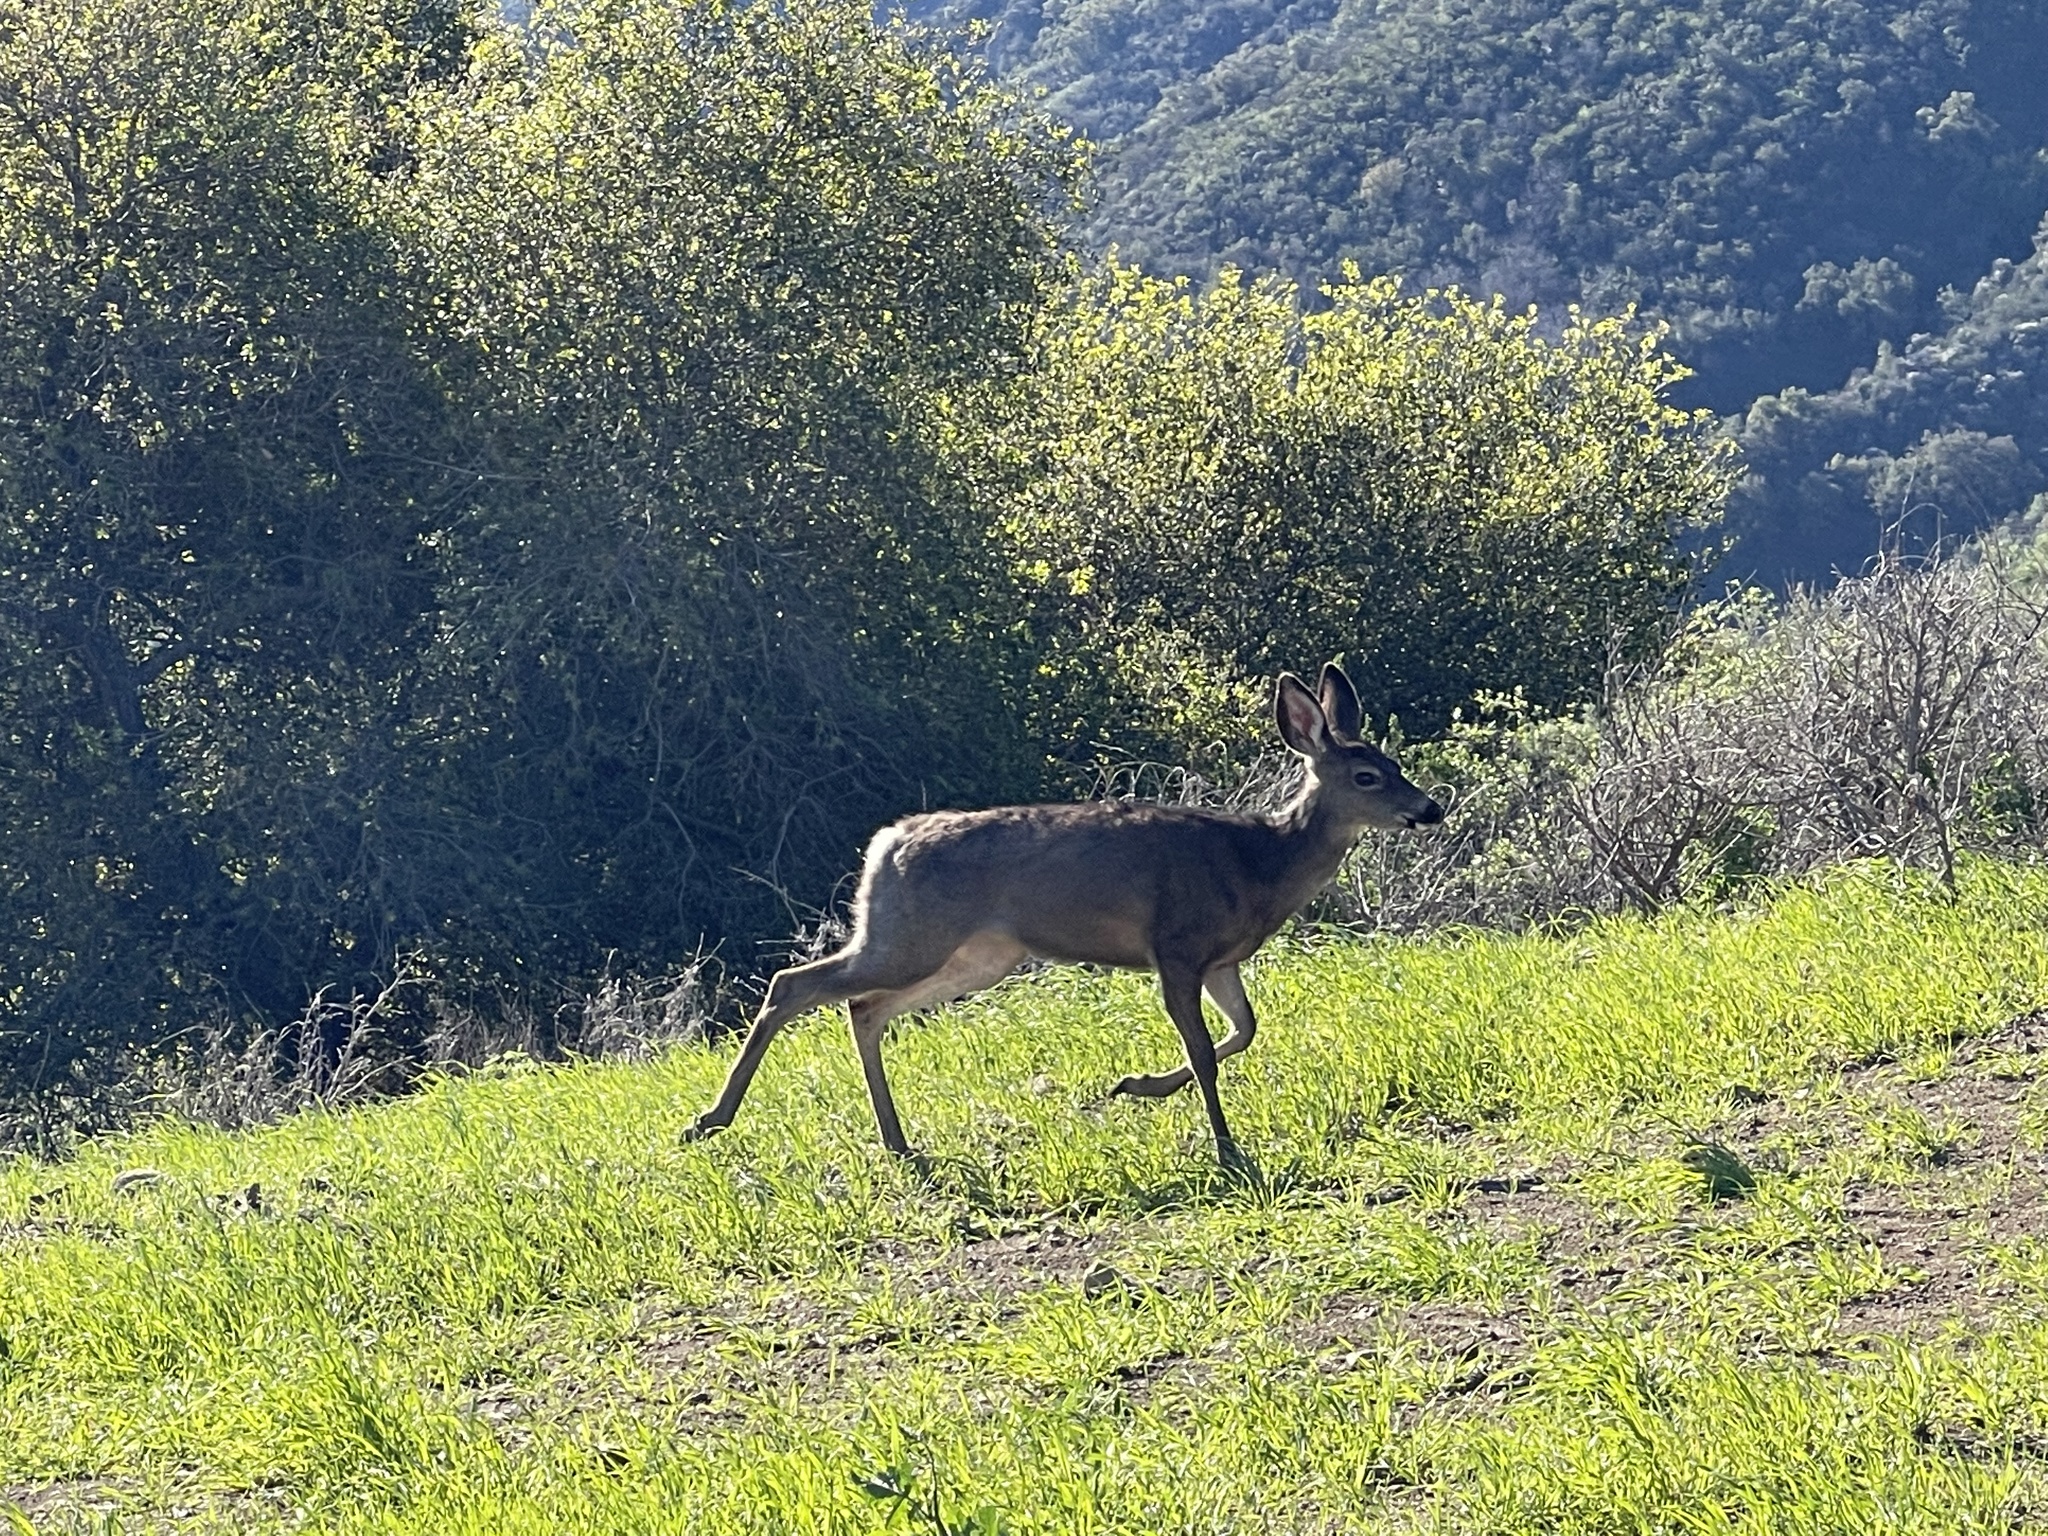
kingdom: Animalia
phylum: Chordata
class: Mammalia
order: Artiodactyla
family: Cervidae
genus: Odocoileus
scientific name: Odocoileus hemionus
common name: Mule deer
